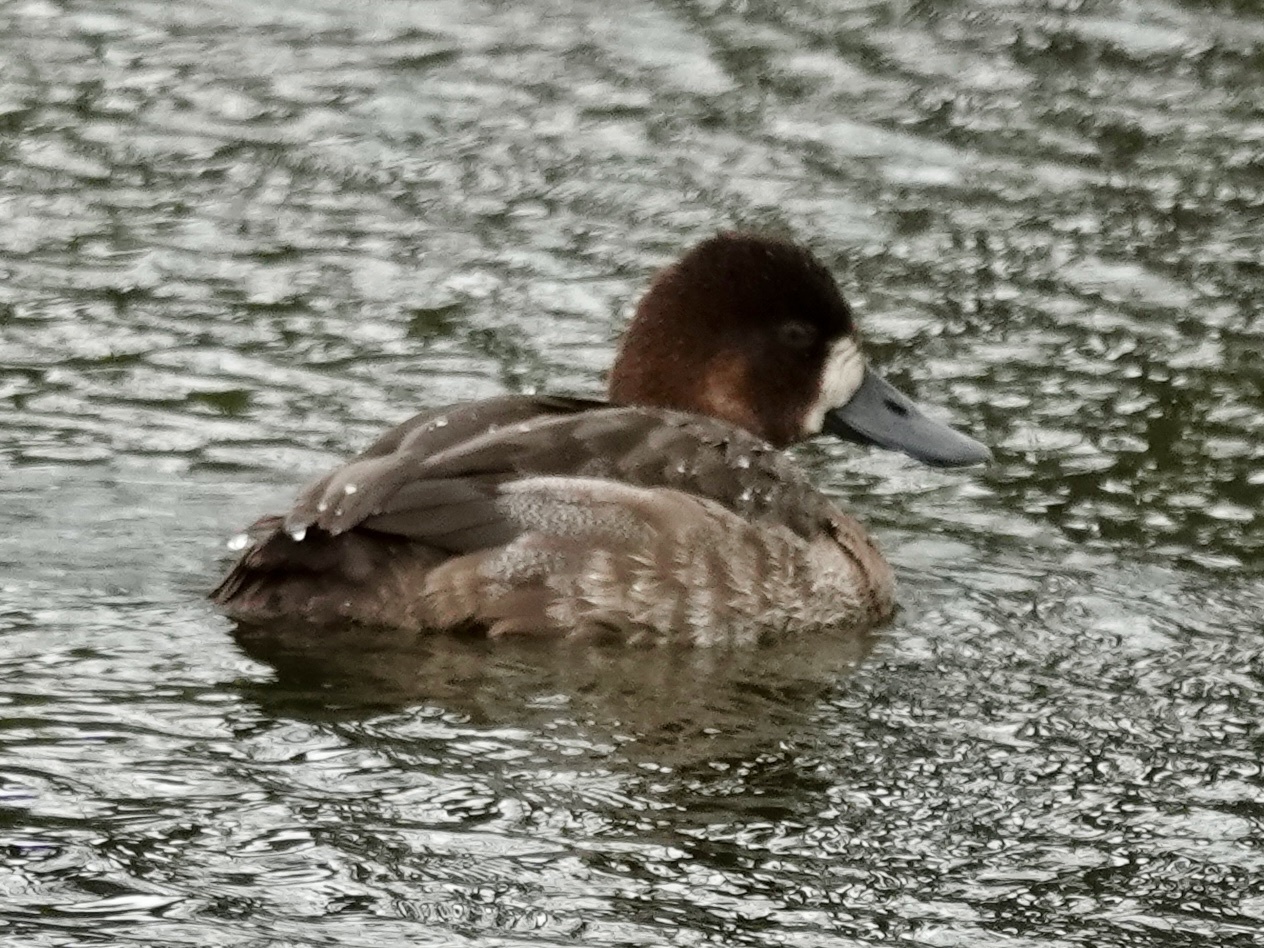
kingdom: Animalia
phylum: Chordata
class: Aves
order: Anseriformes
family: Anatidae
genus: Aythya
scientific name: Aythya affinis
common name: Lesser scaup
